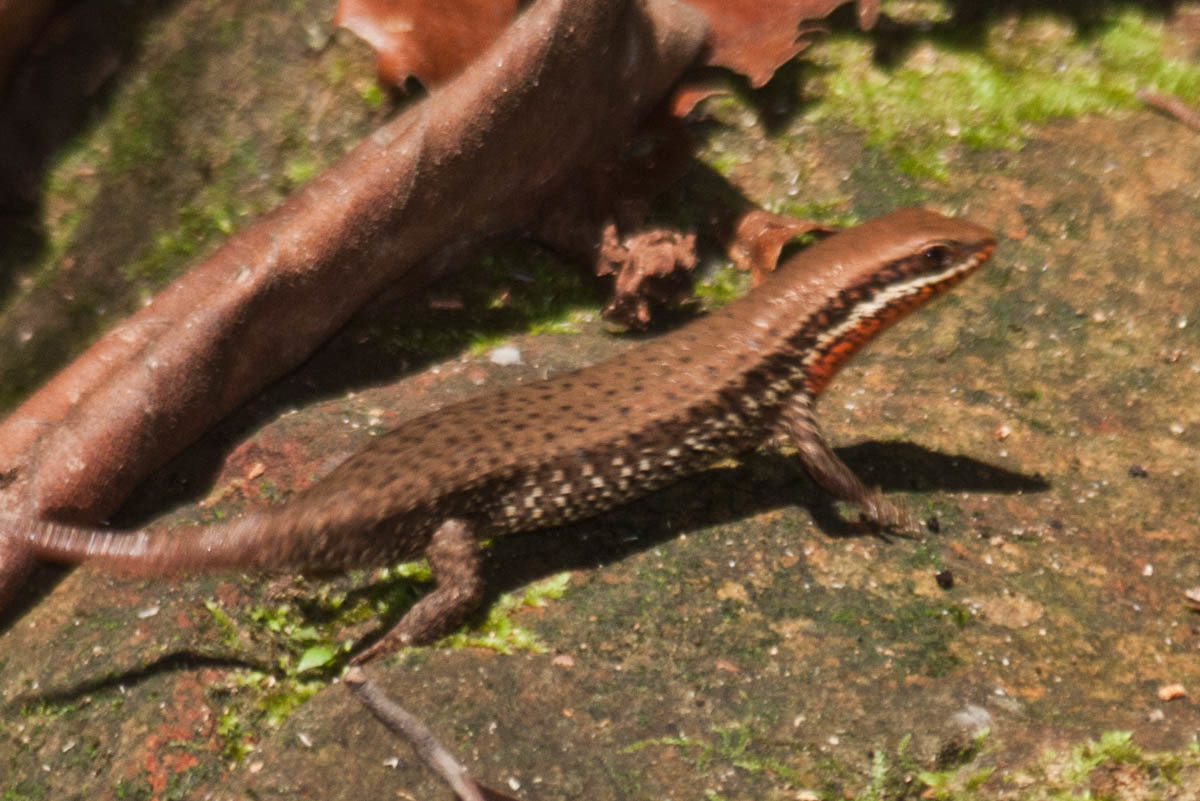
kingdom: Animalia
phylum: Chordata
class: Squamata
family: Scincidae
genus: Eutropis
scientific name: Eutropis macularia
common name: Bronze mabuya
